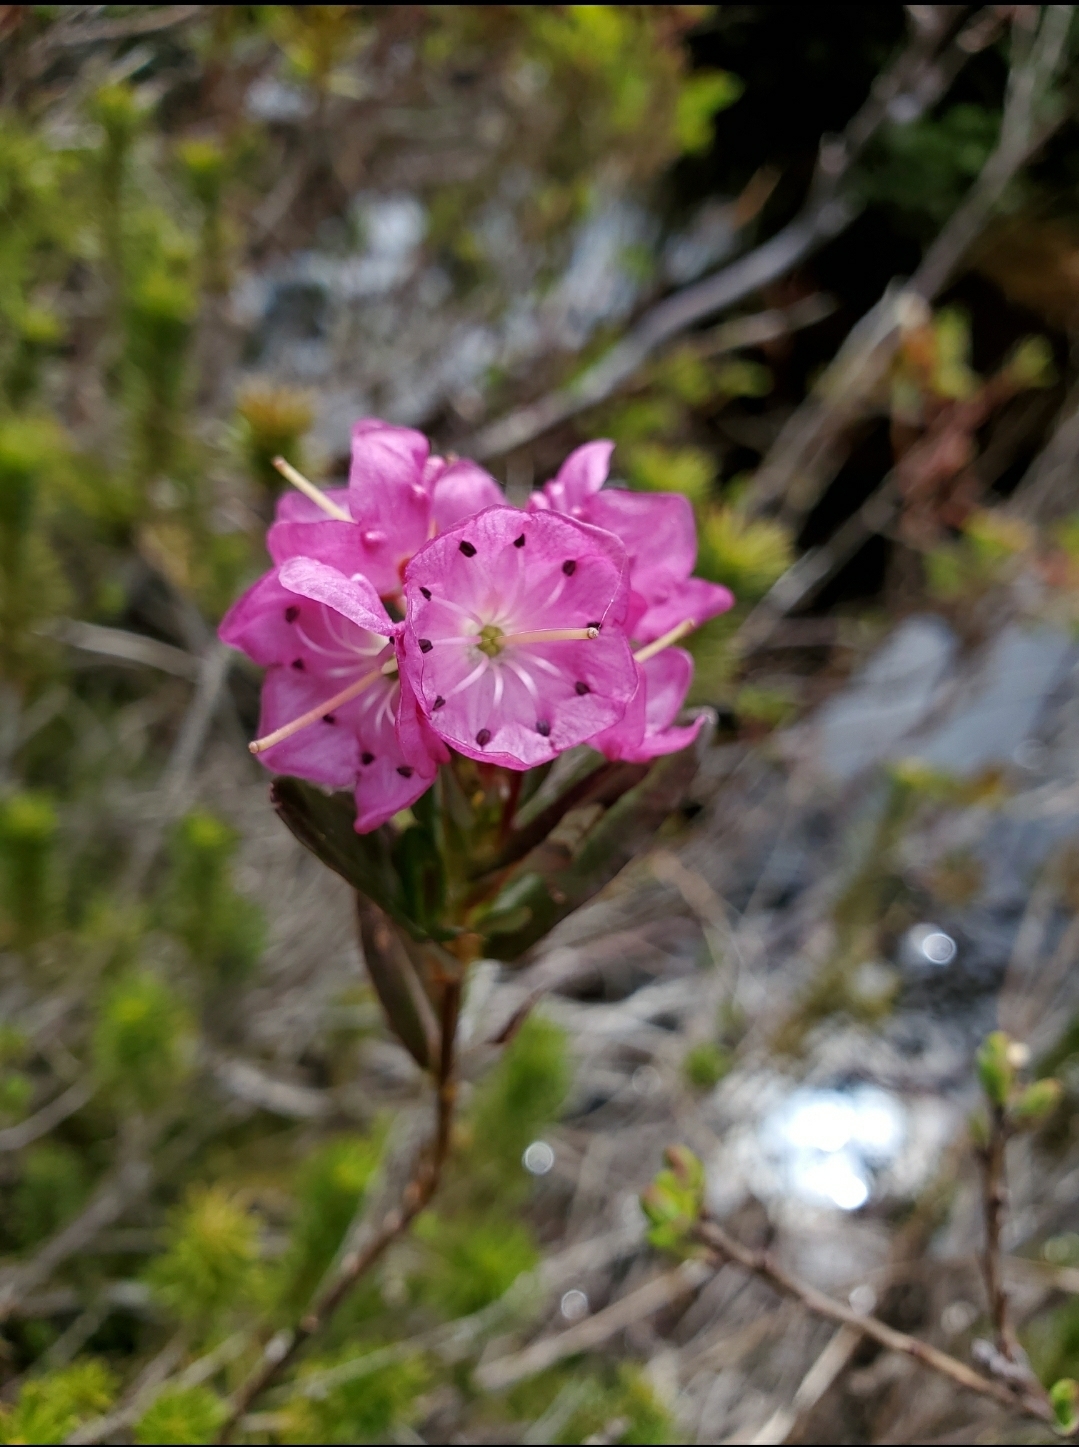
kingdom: Plantae
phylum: Tracheophyta
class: Magnoliopsida
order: Ericales
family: Ericaceae
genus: Kalmia
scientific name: Kalmia microphylla
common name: Alpine bog laurel
